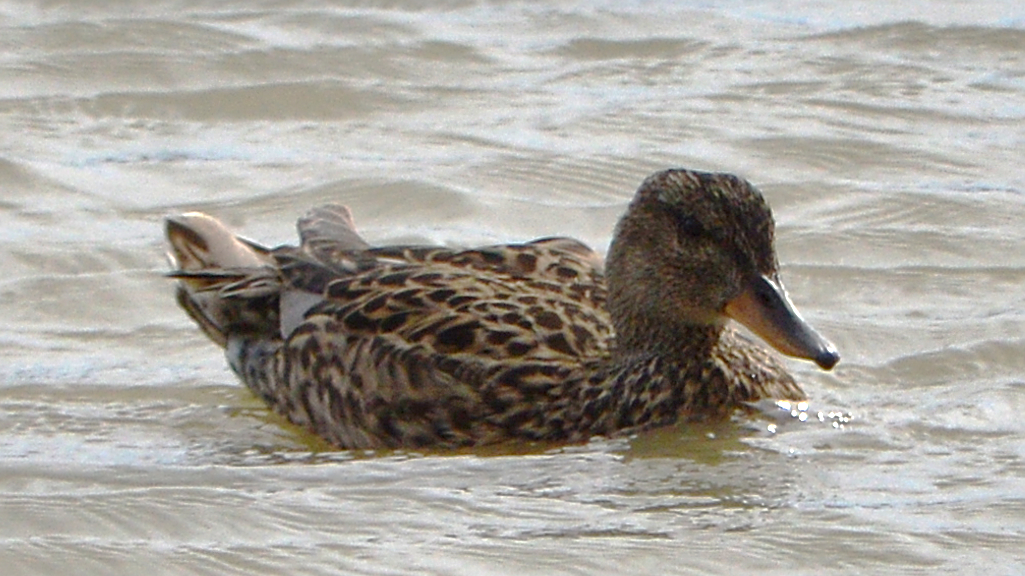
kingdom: Animalia
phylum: Chordata
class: Aves
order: Anseriformes
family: Anatidae
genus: Anas
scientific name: Anas platyrhynchos
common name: Mallard
